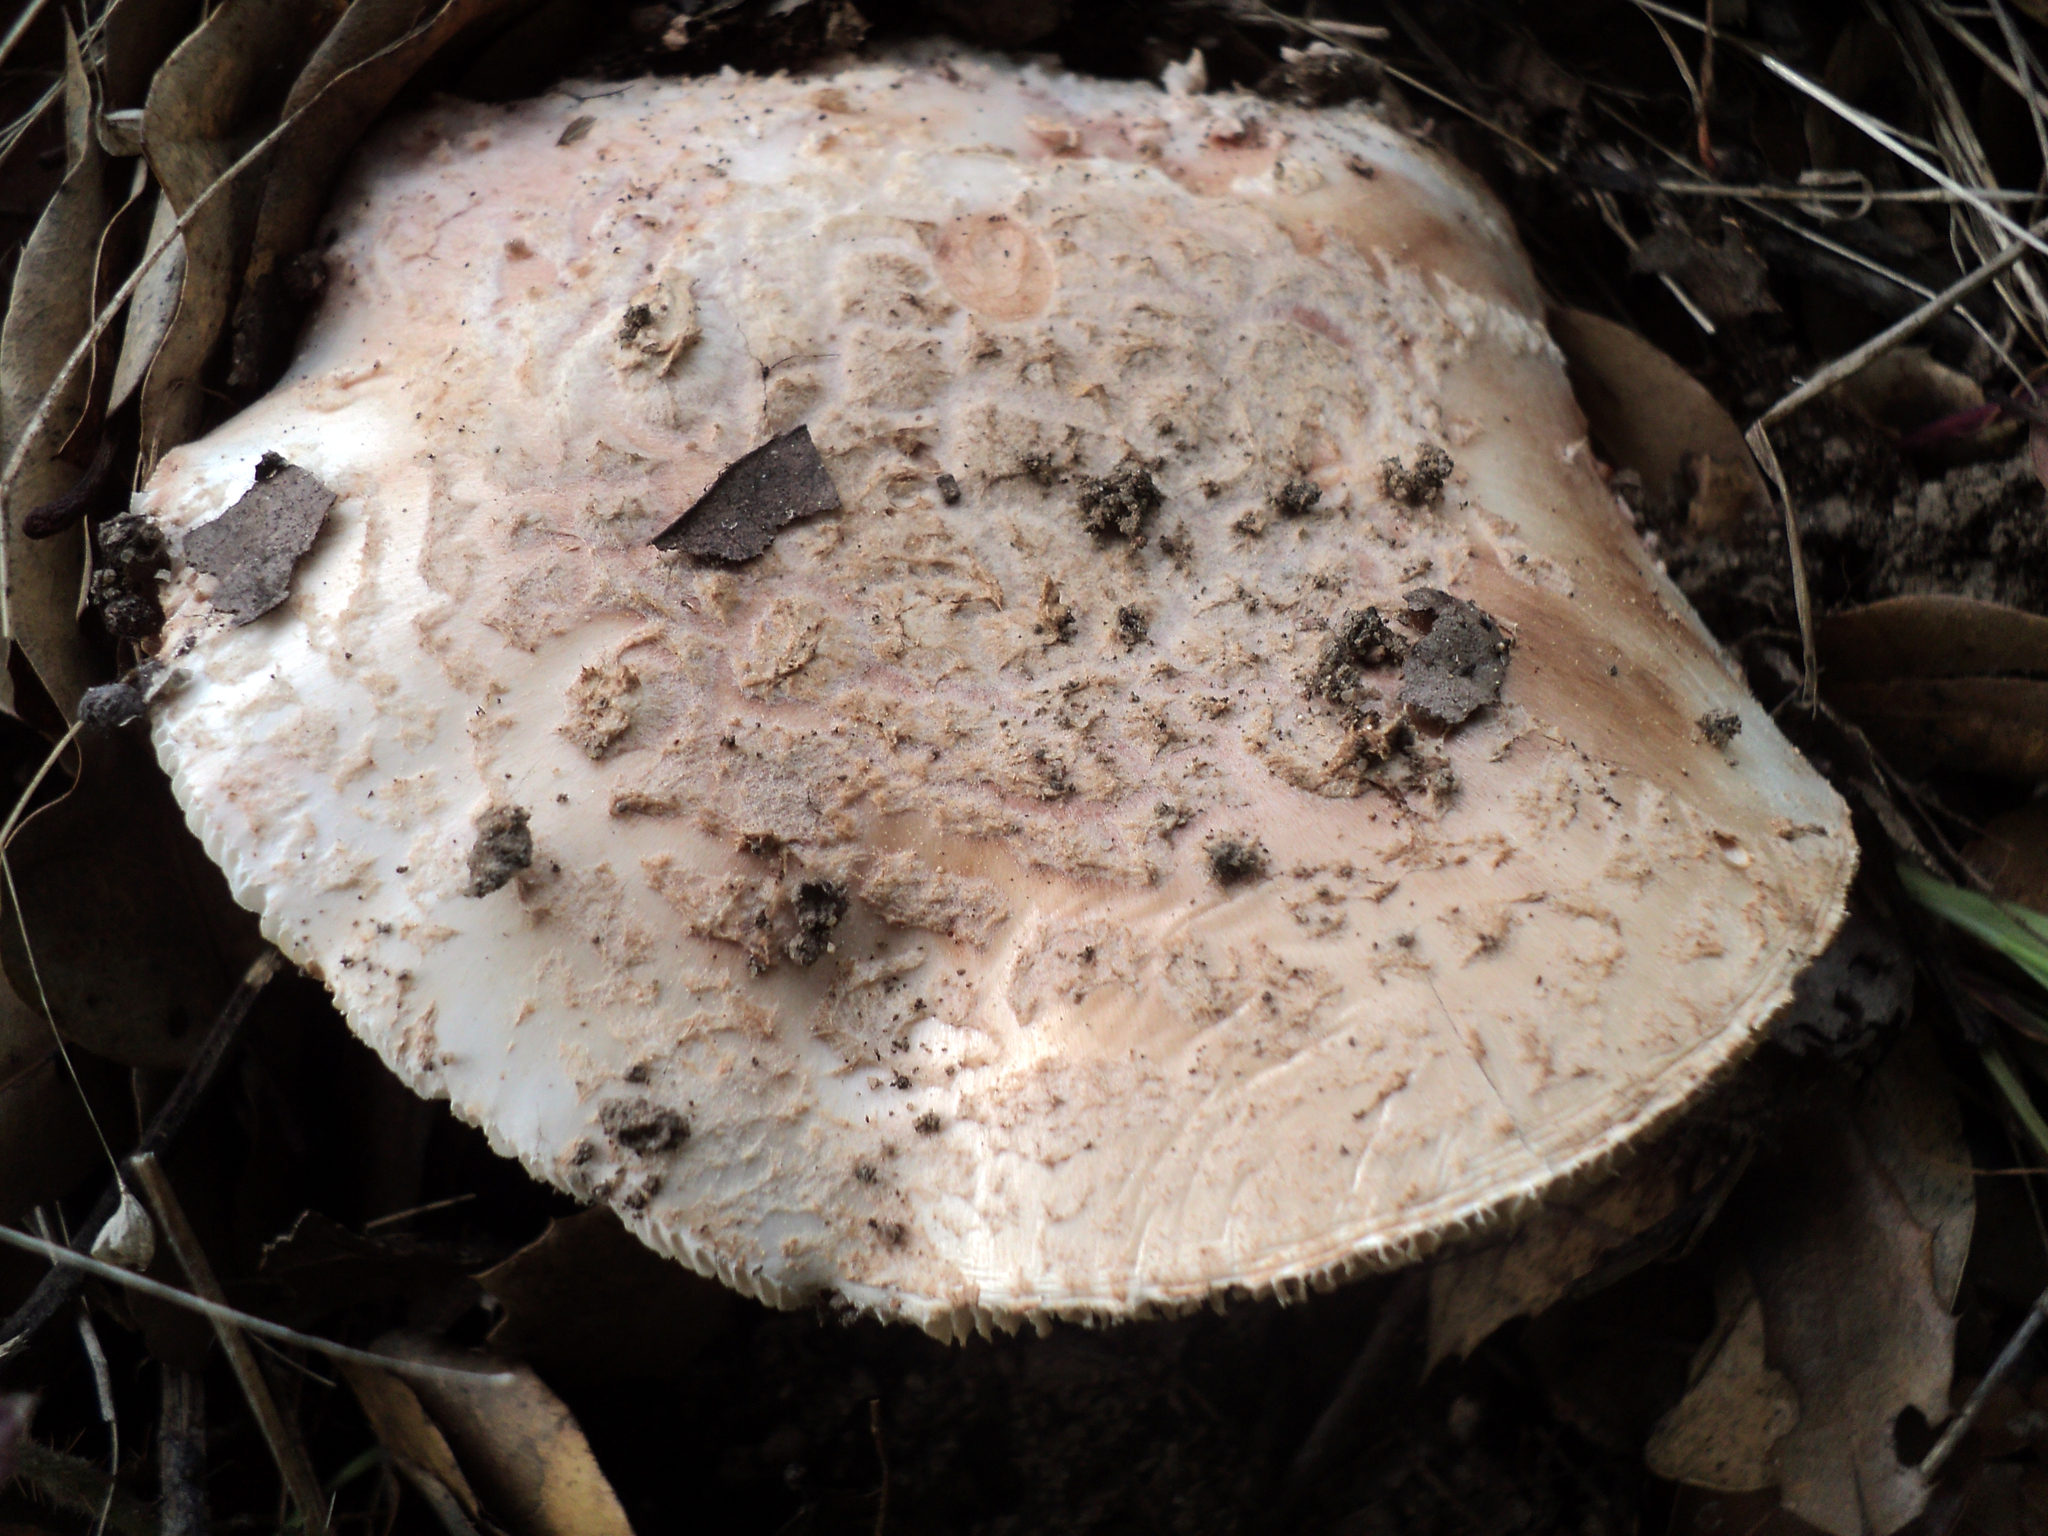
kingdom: Fungi
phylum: Basidiomycota
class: Agaricomycetes
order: Agaricales
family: Amanitaceae
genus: Amanita
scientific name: Amanita novinupta
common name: Blushing bride
